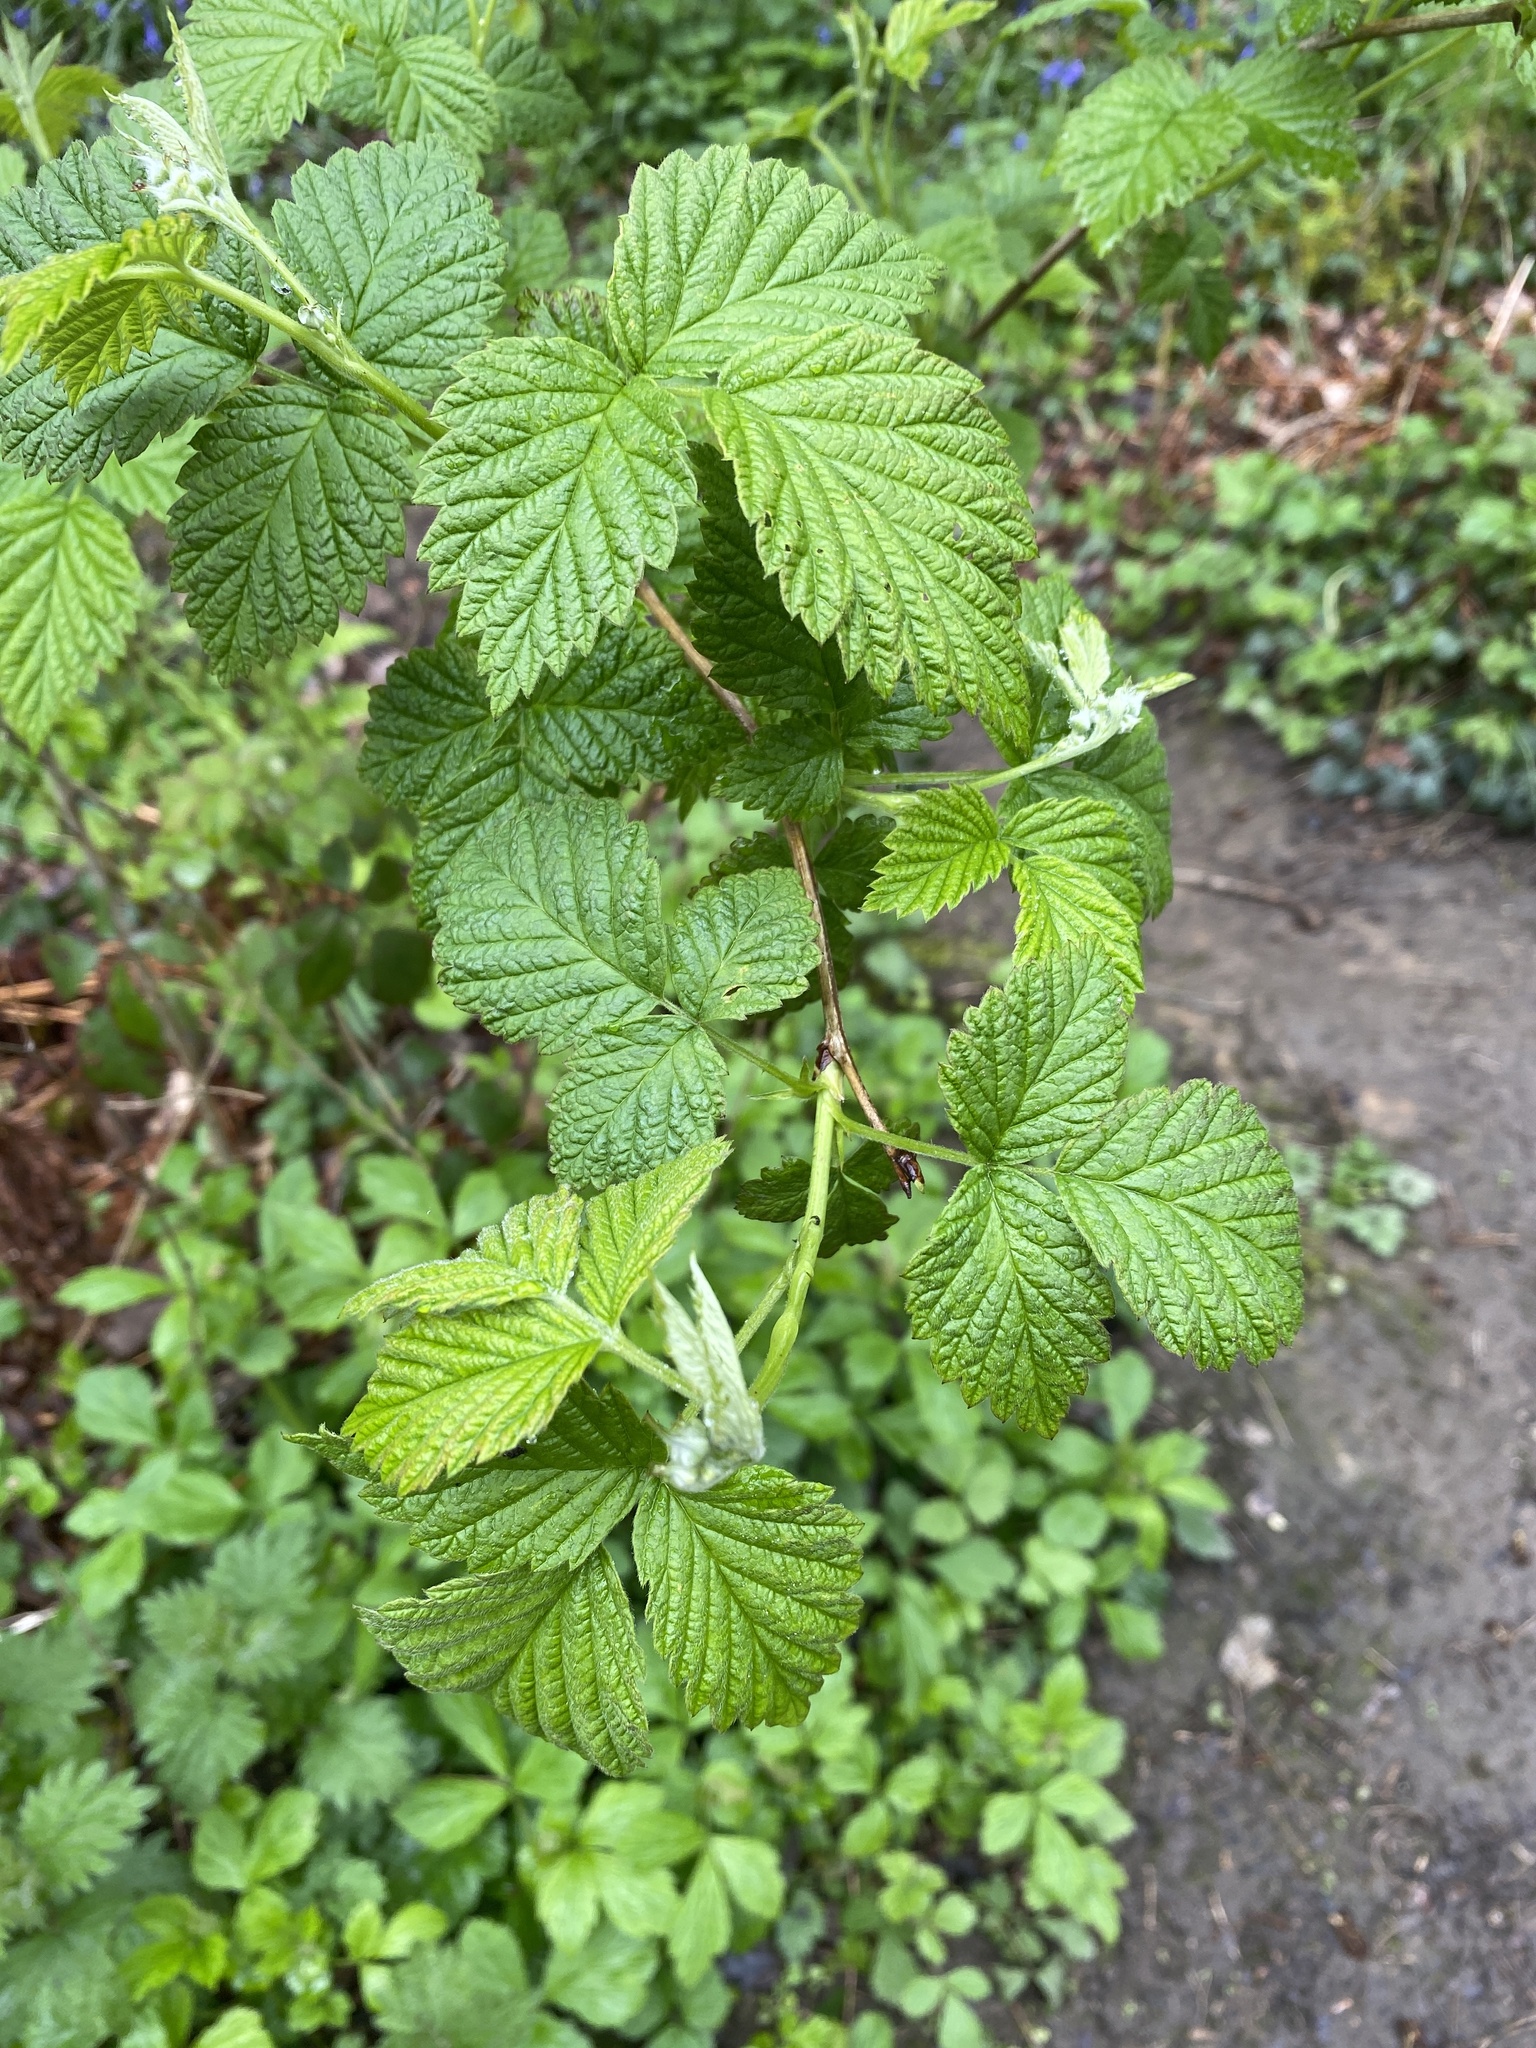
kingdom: Plantae
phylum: Tracheophyta
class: Magnoliopsida
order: Rosales
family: Rosaceae
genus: Rubus
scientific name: Rubus idaeus
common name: Raspberry
